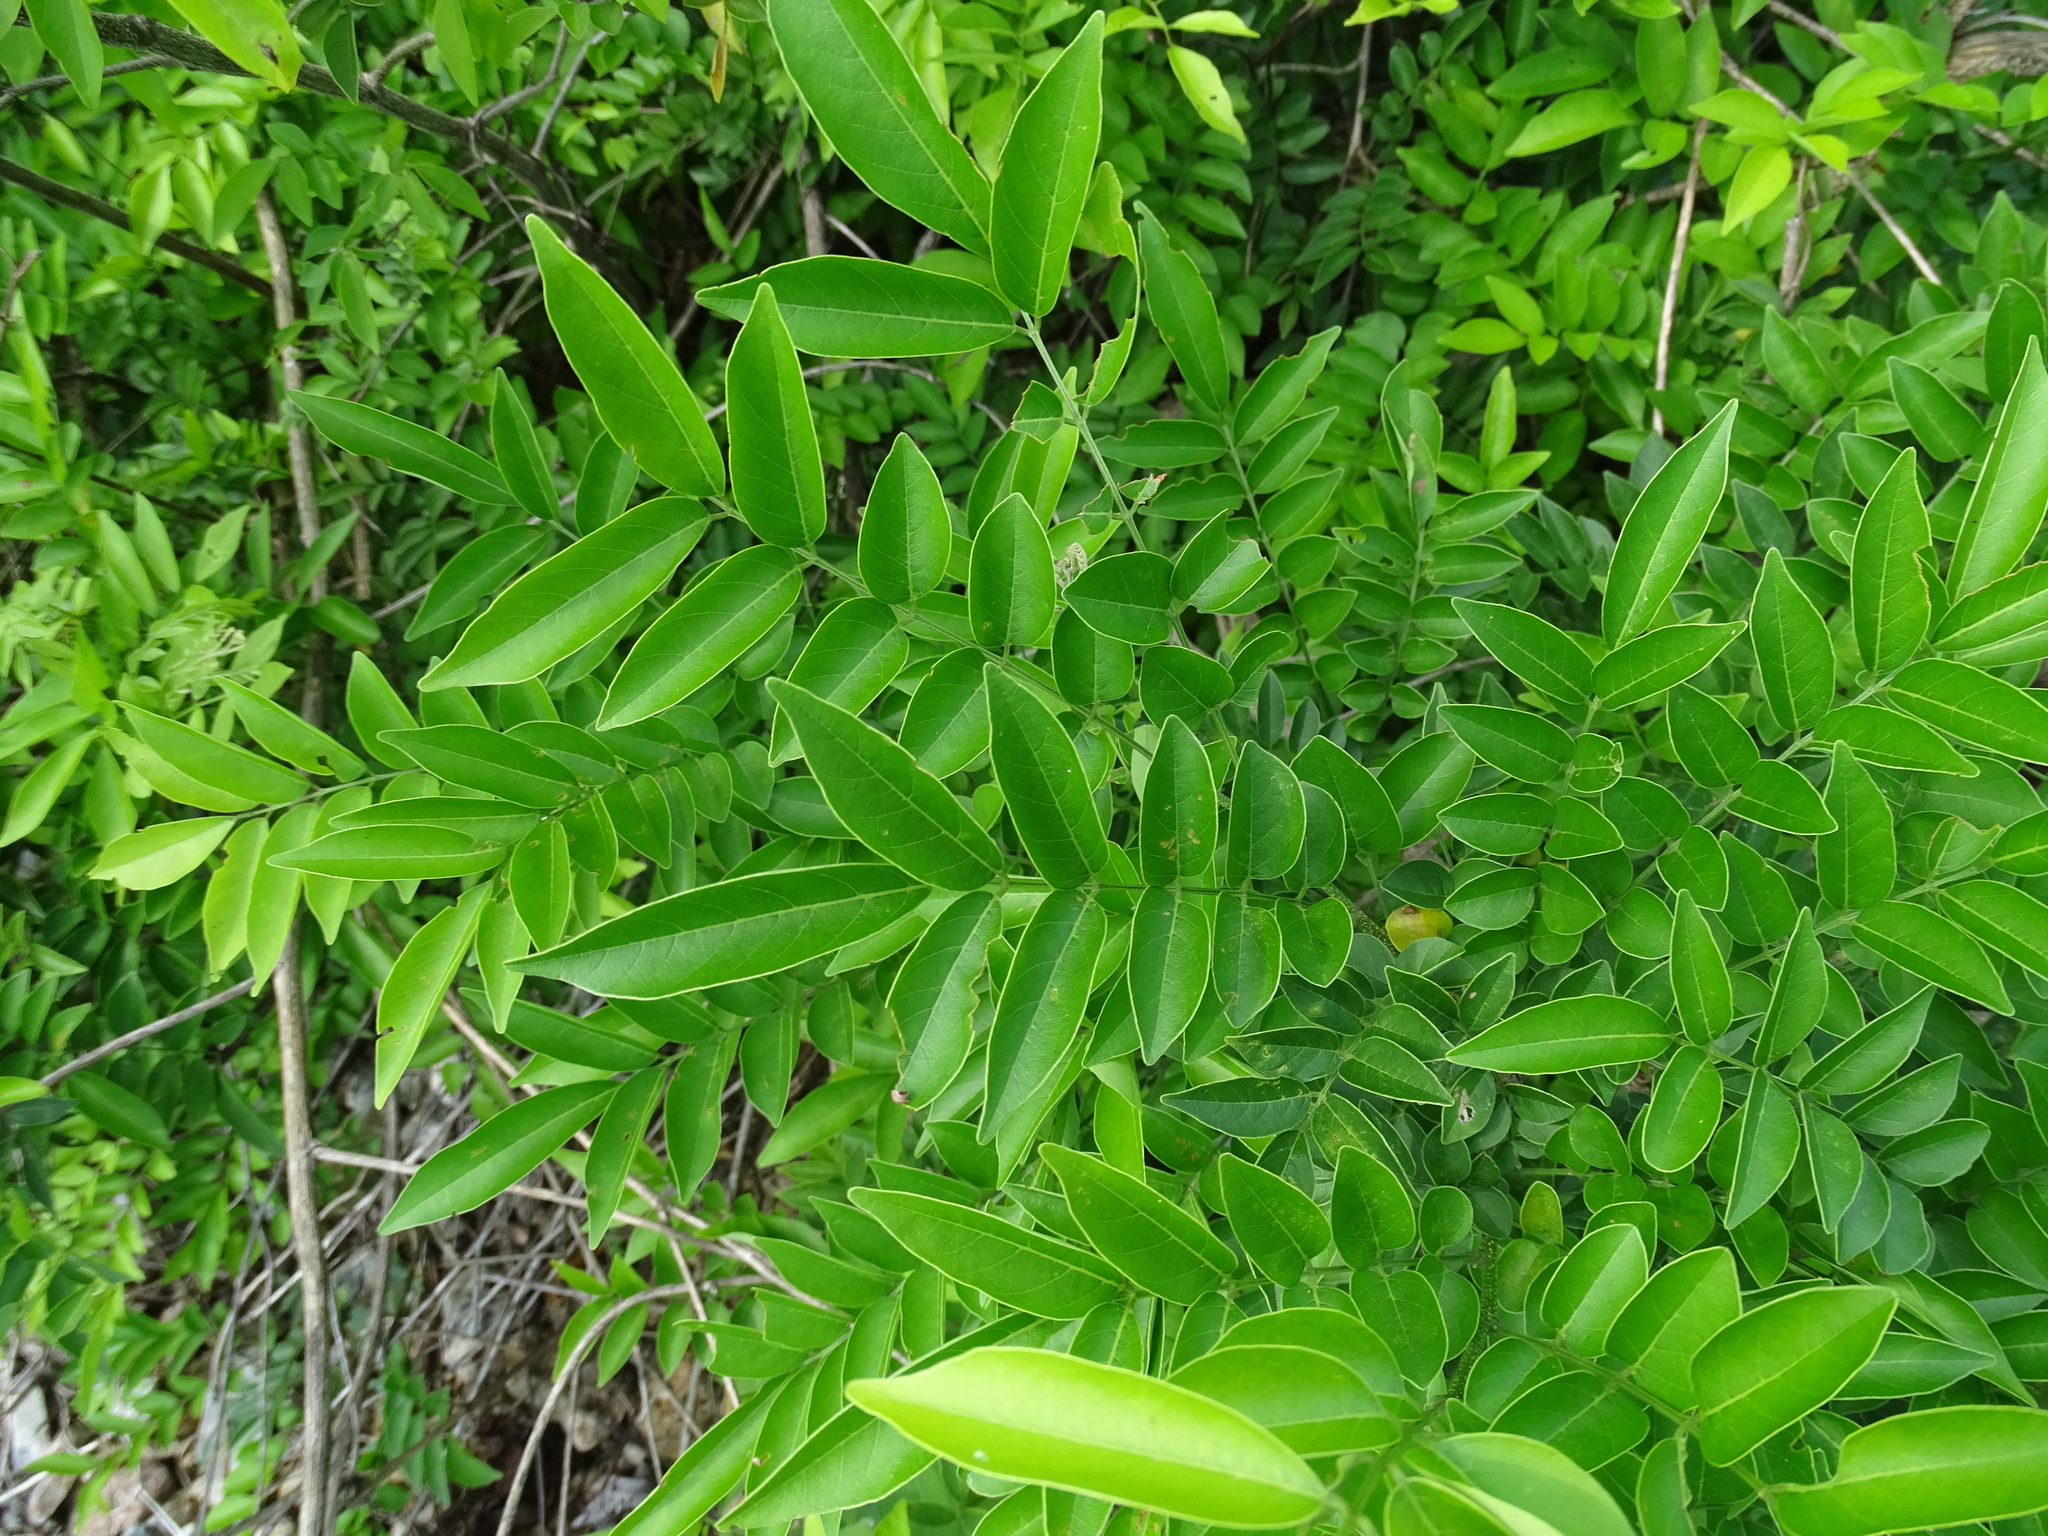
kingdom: Plantae
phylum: Tracheophyta
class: Magnoliopsida
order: Fabales
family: Fabaceae
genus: Andira
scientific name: Andira inermis
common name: Angelin
